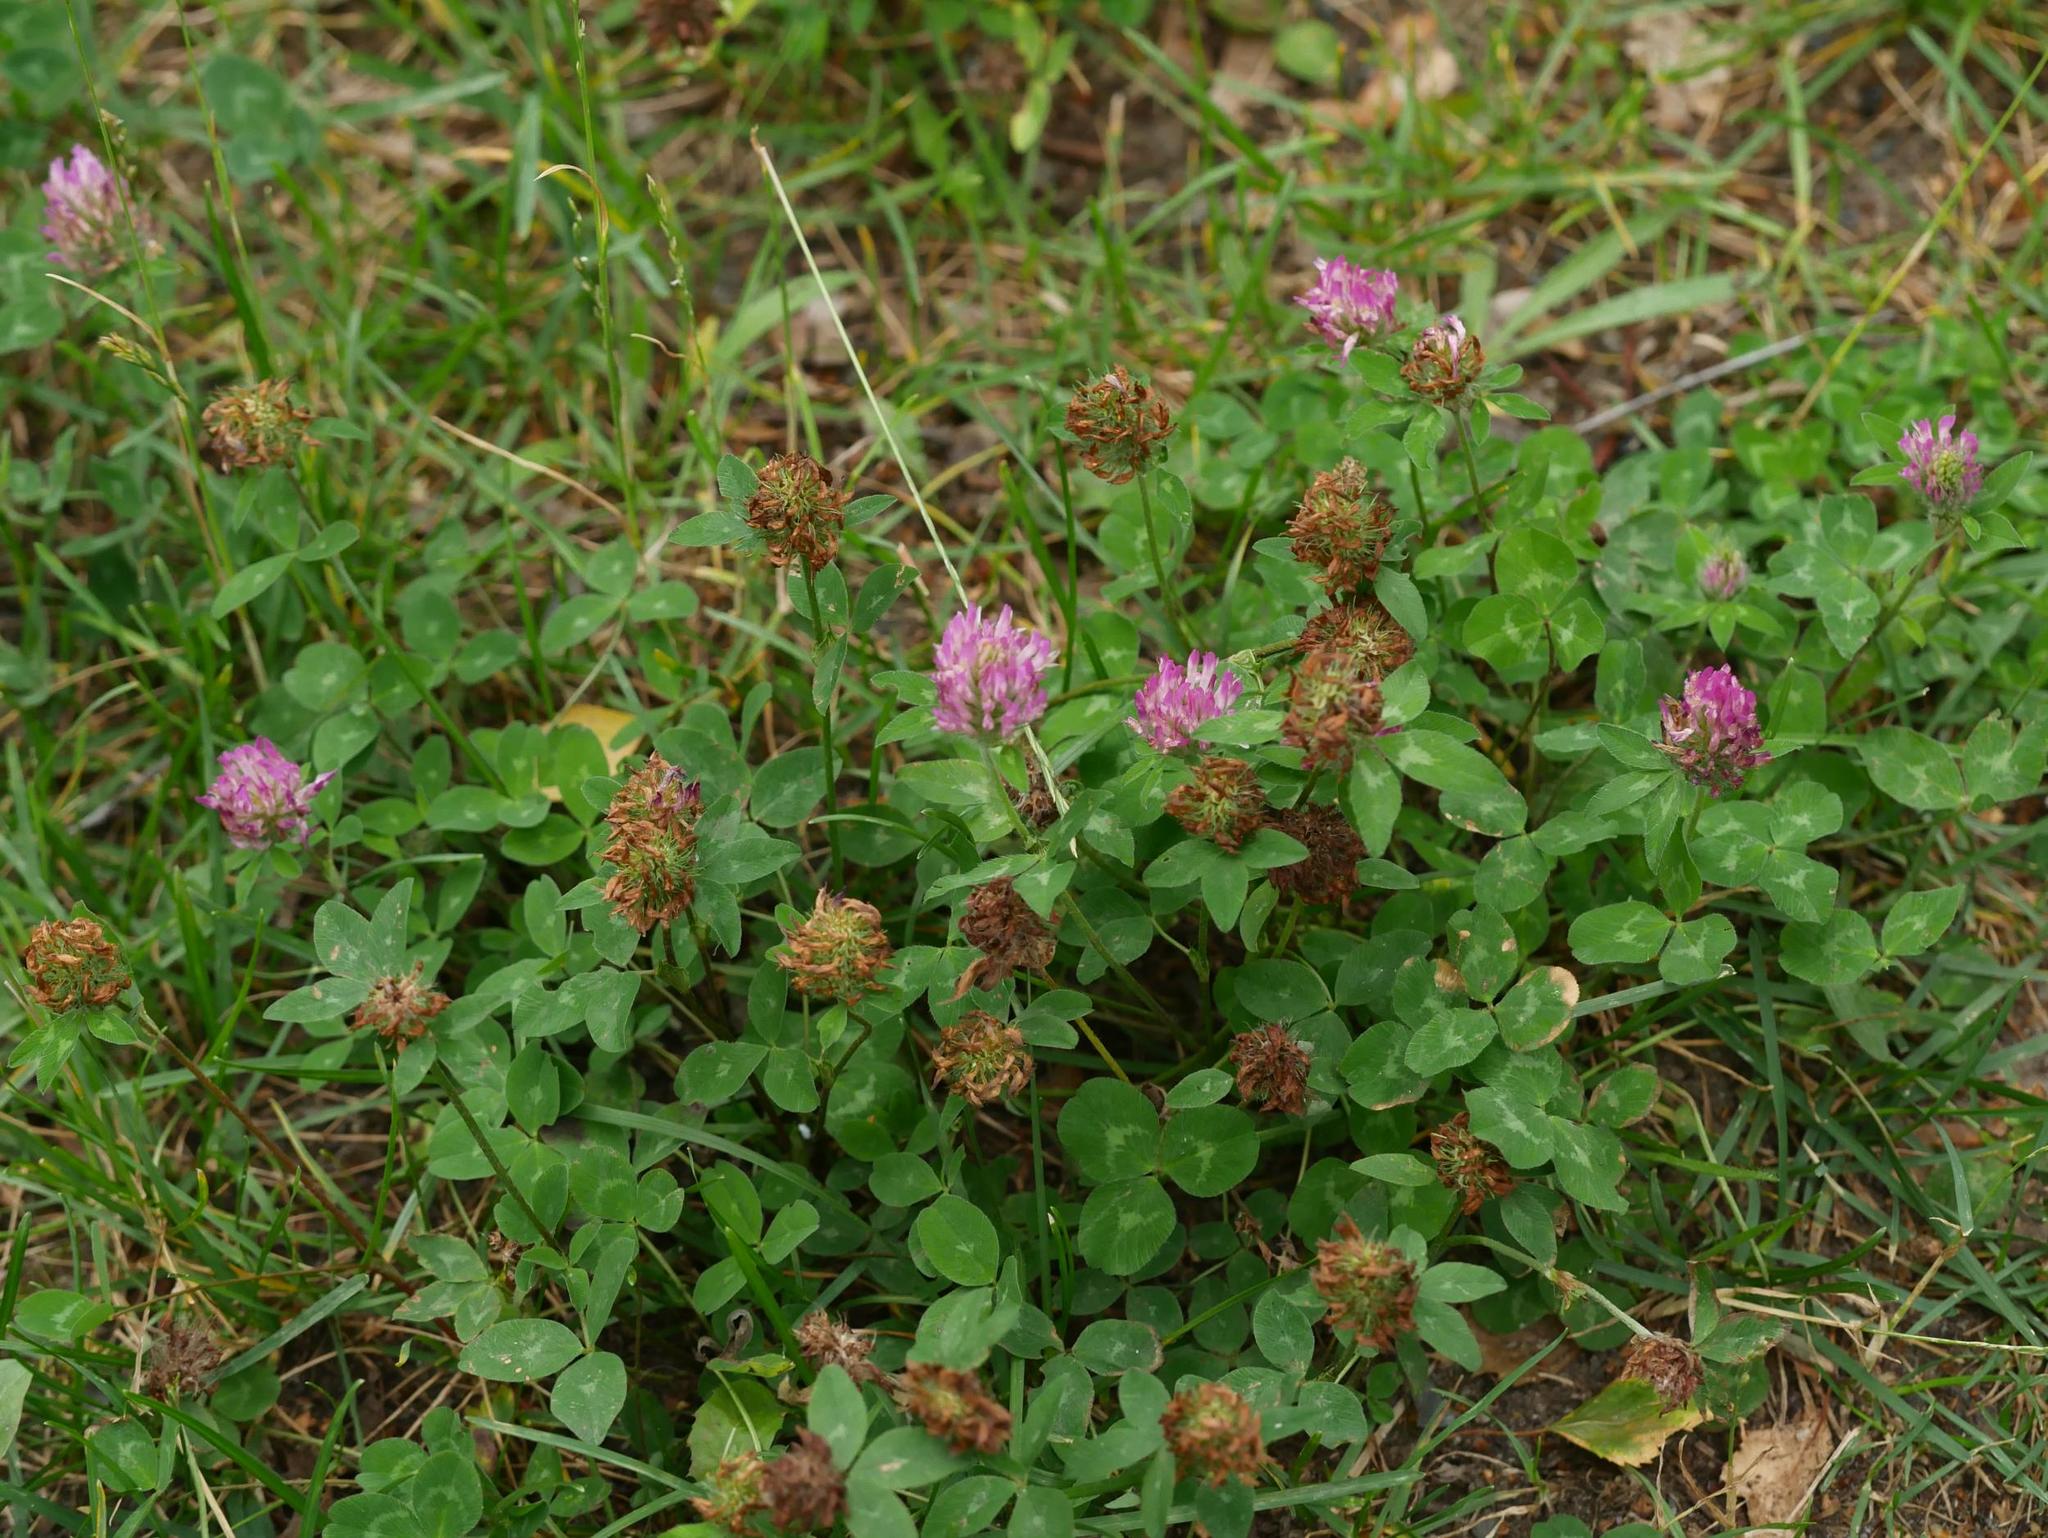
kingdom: Plantae
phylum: Tracheophyta
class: Magnoliopsida
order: Fabales
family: Fabaceae
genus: Trifolium
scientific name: Trifolium pratense
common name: Red clover
